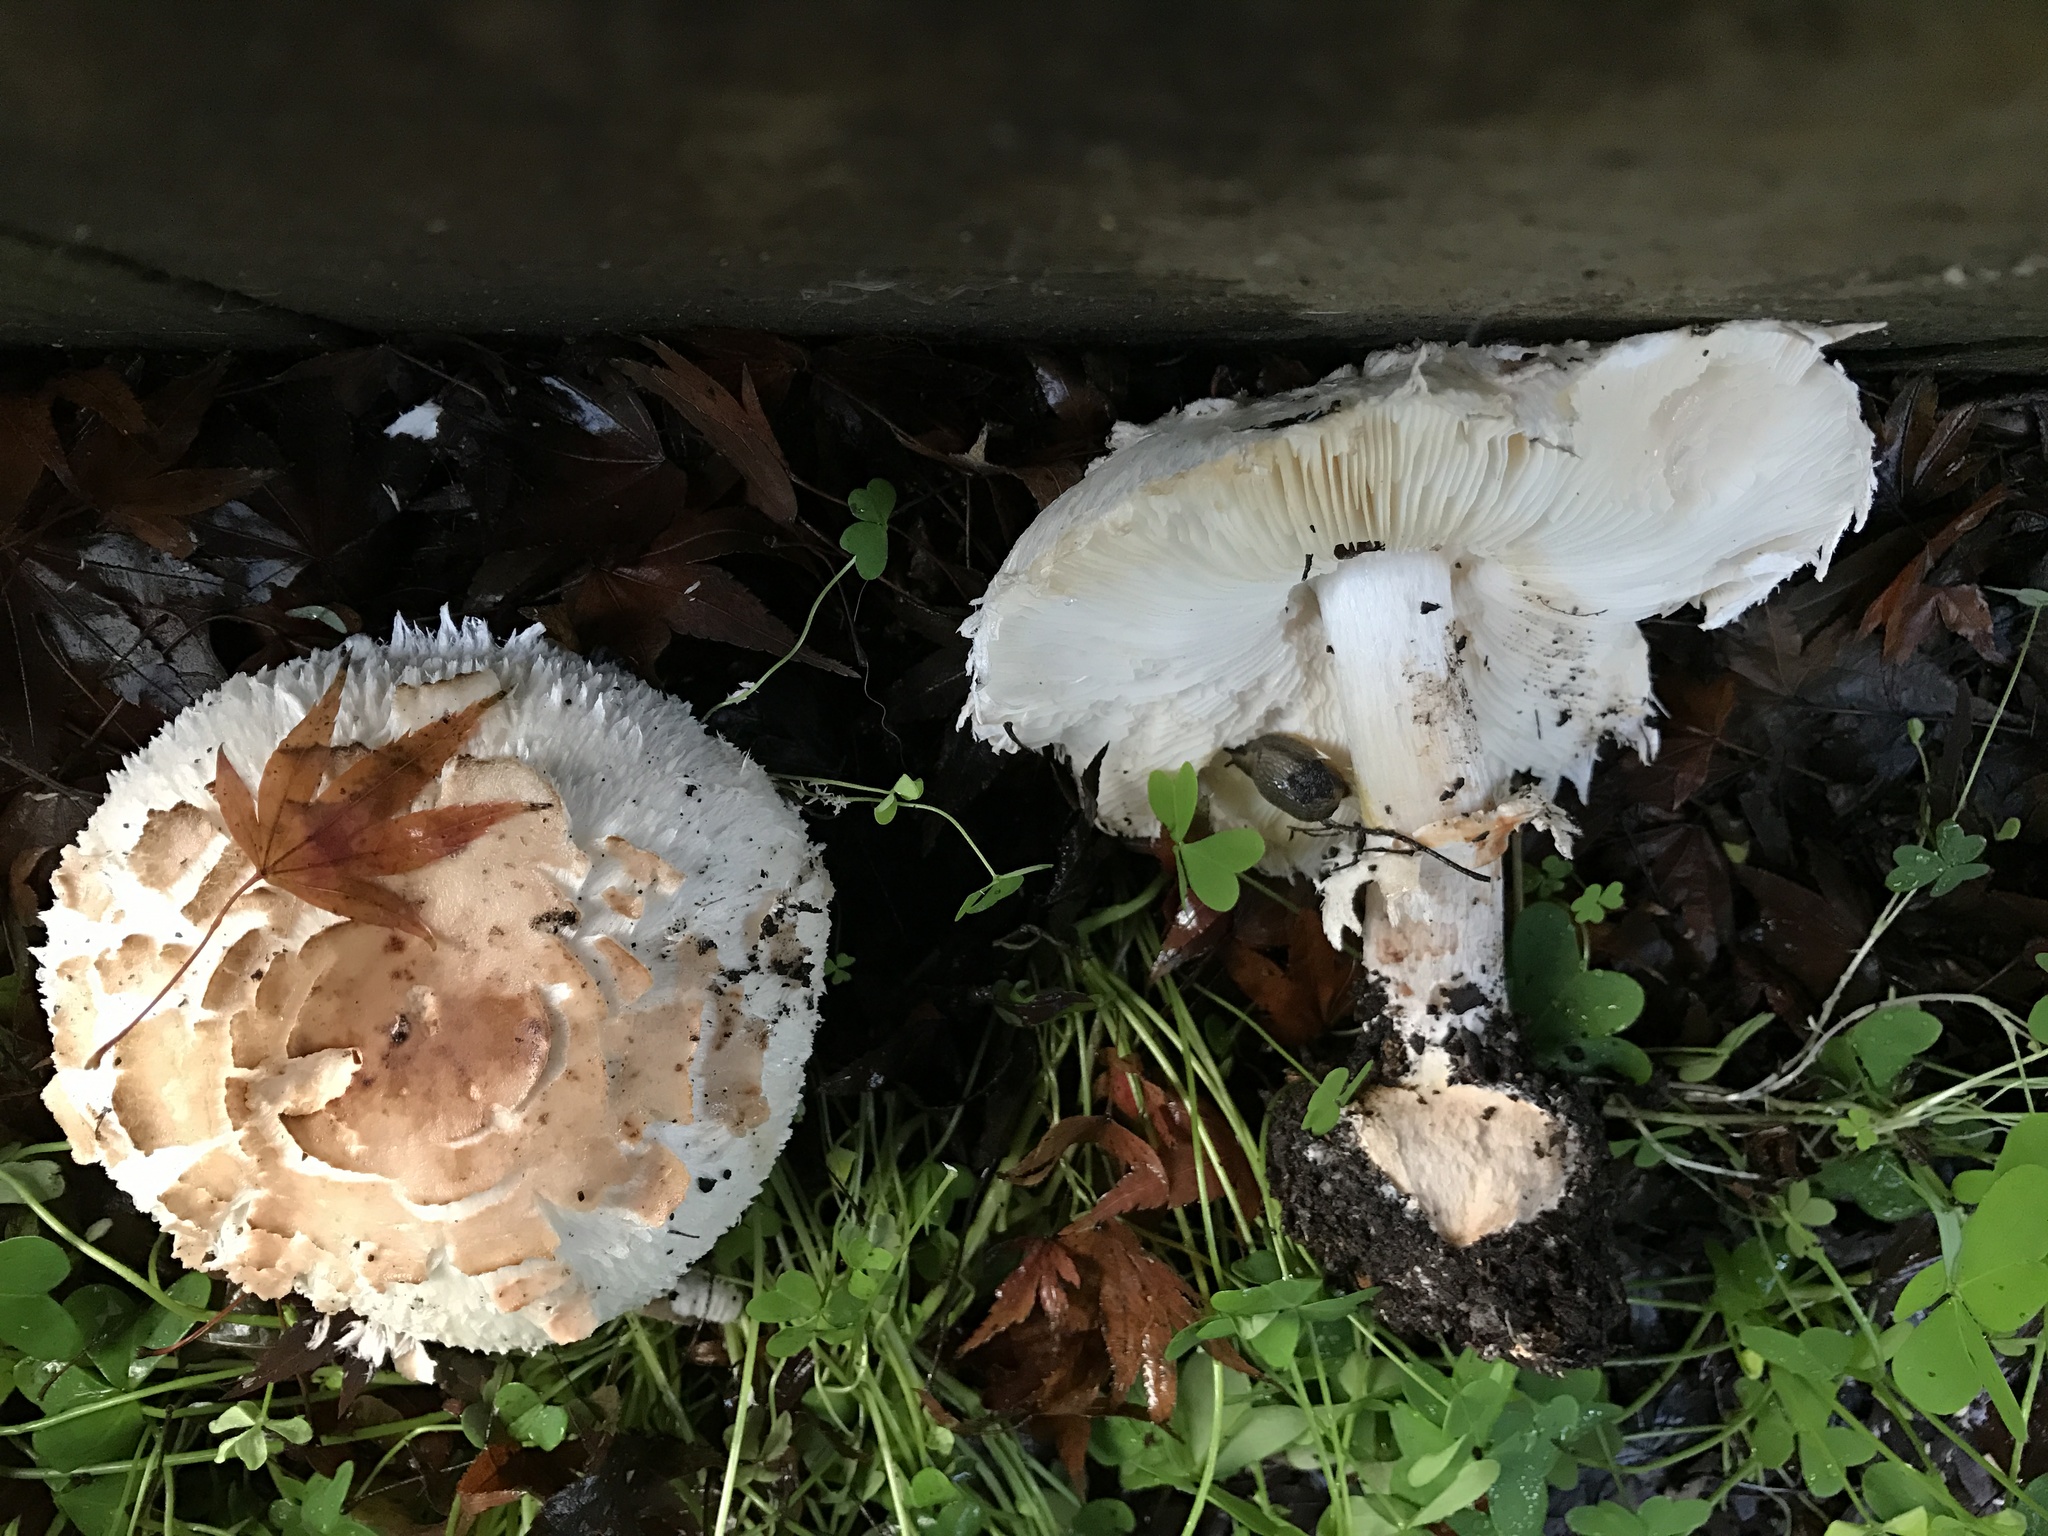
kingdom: Fungi
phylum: Basidiomycota
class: Agaricomycetes
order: Agaricales
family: Agaricaceae
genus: Chlorophyllum
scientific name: Chlorophyllum brunneum
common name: Brown parasol
